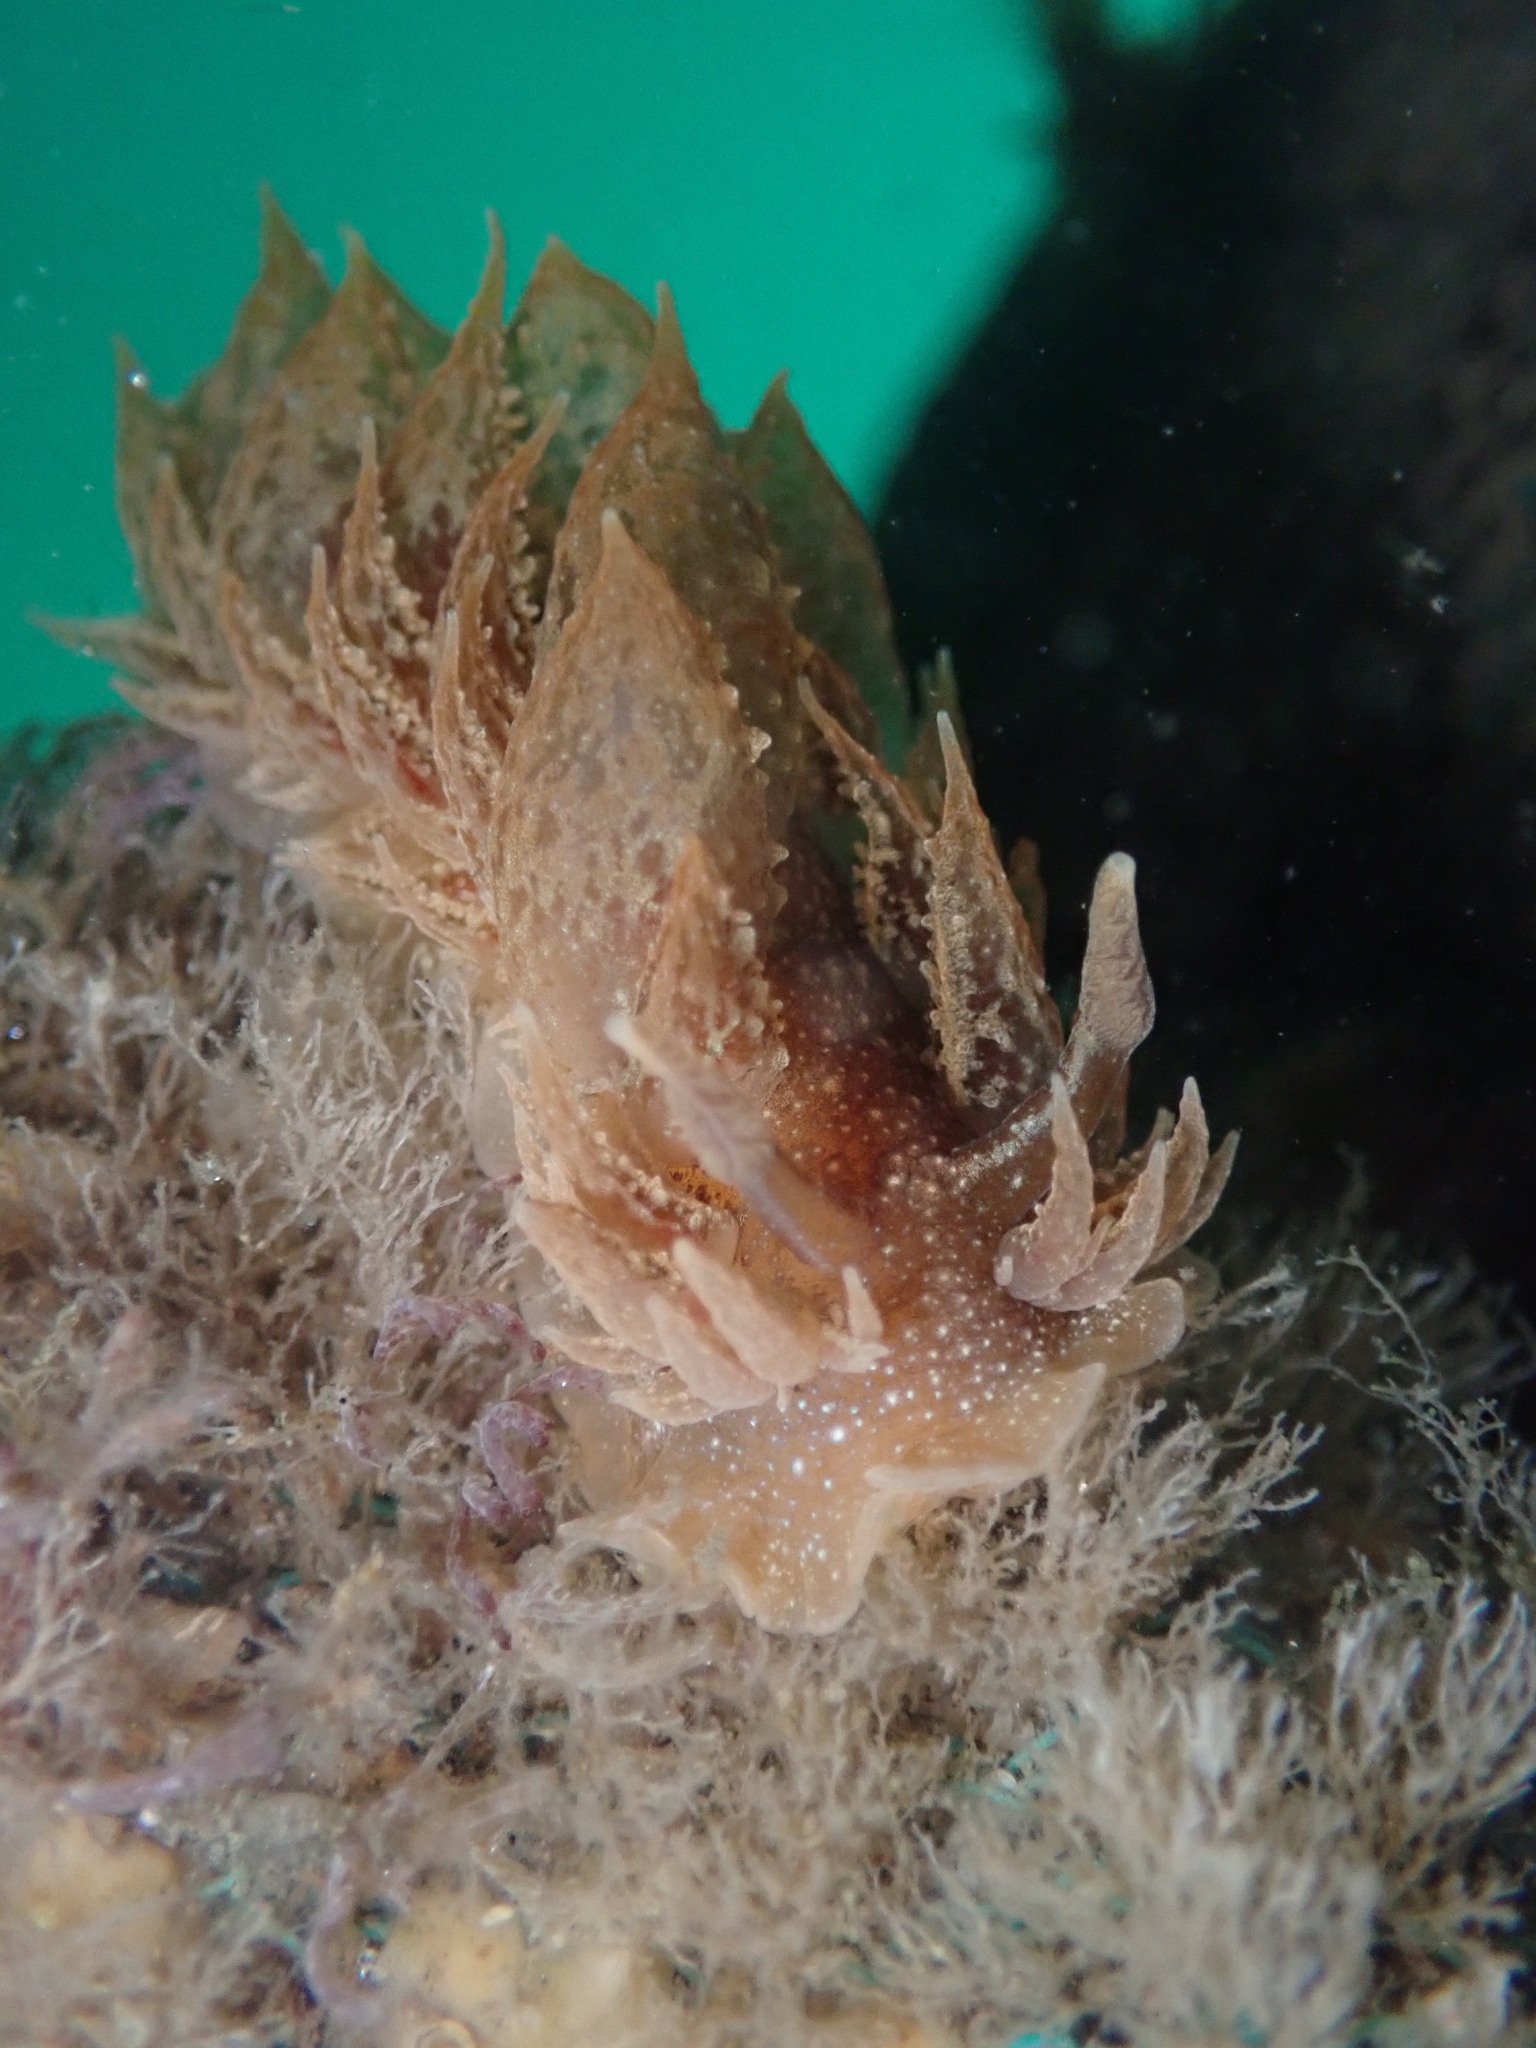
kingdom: Animalia
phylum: Mollusca
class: Gastropoda
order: Nudibranchia
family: Dironidae
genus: Dirona
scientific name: Dirona picta
